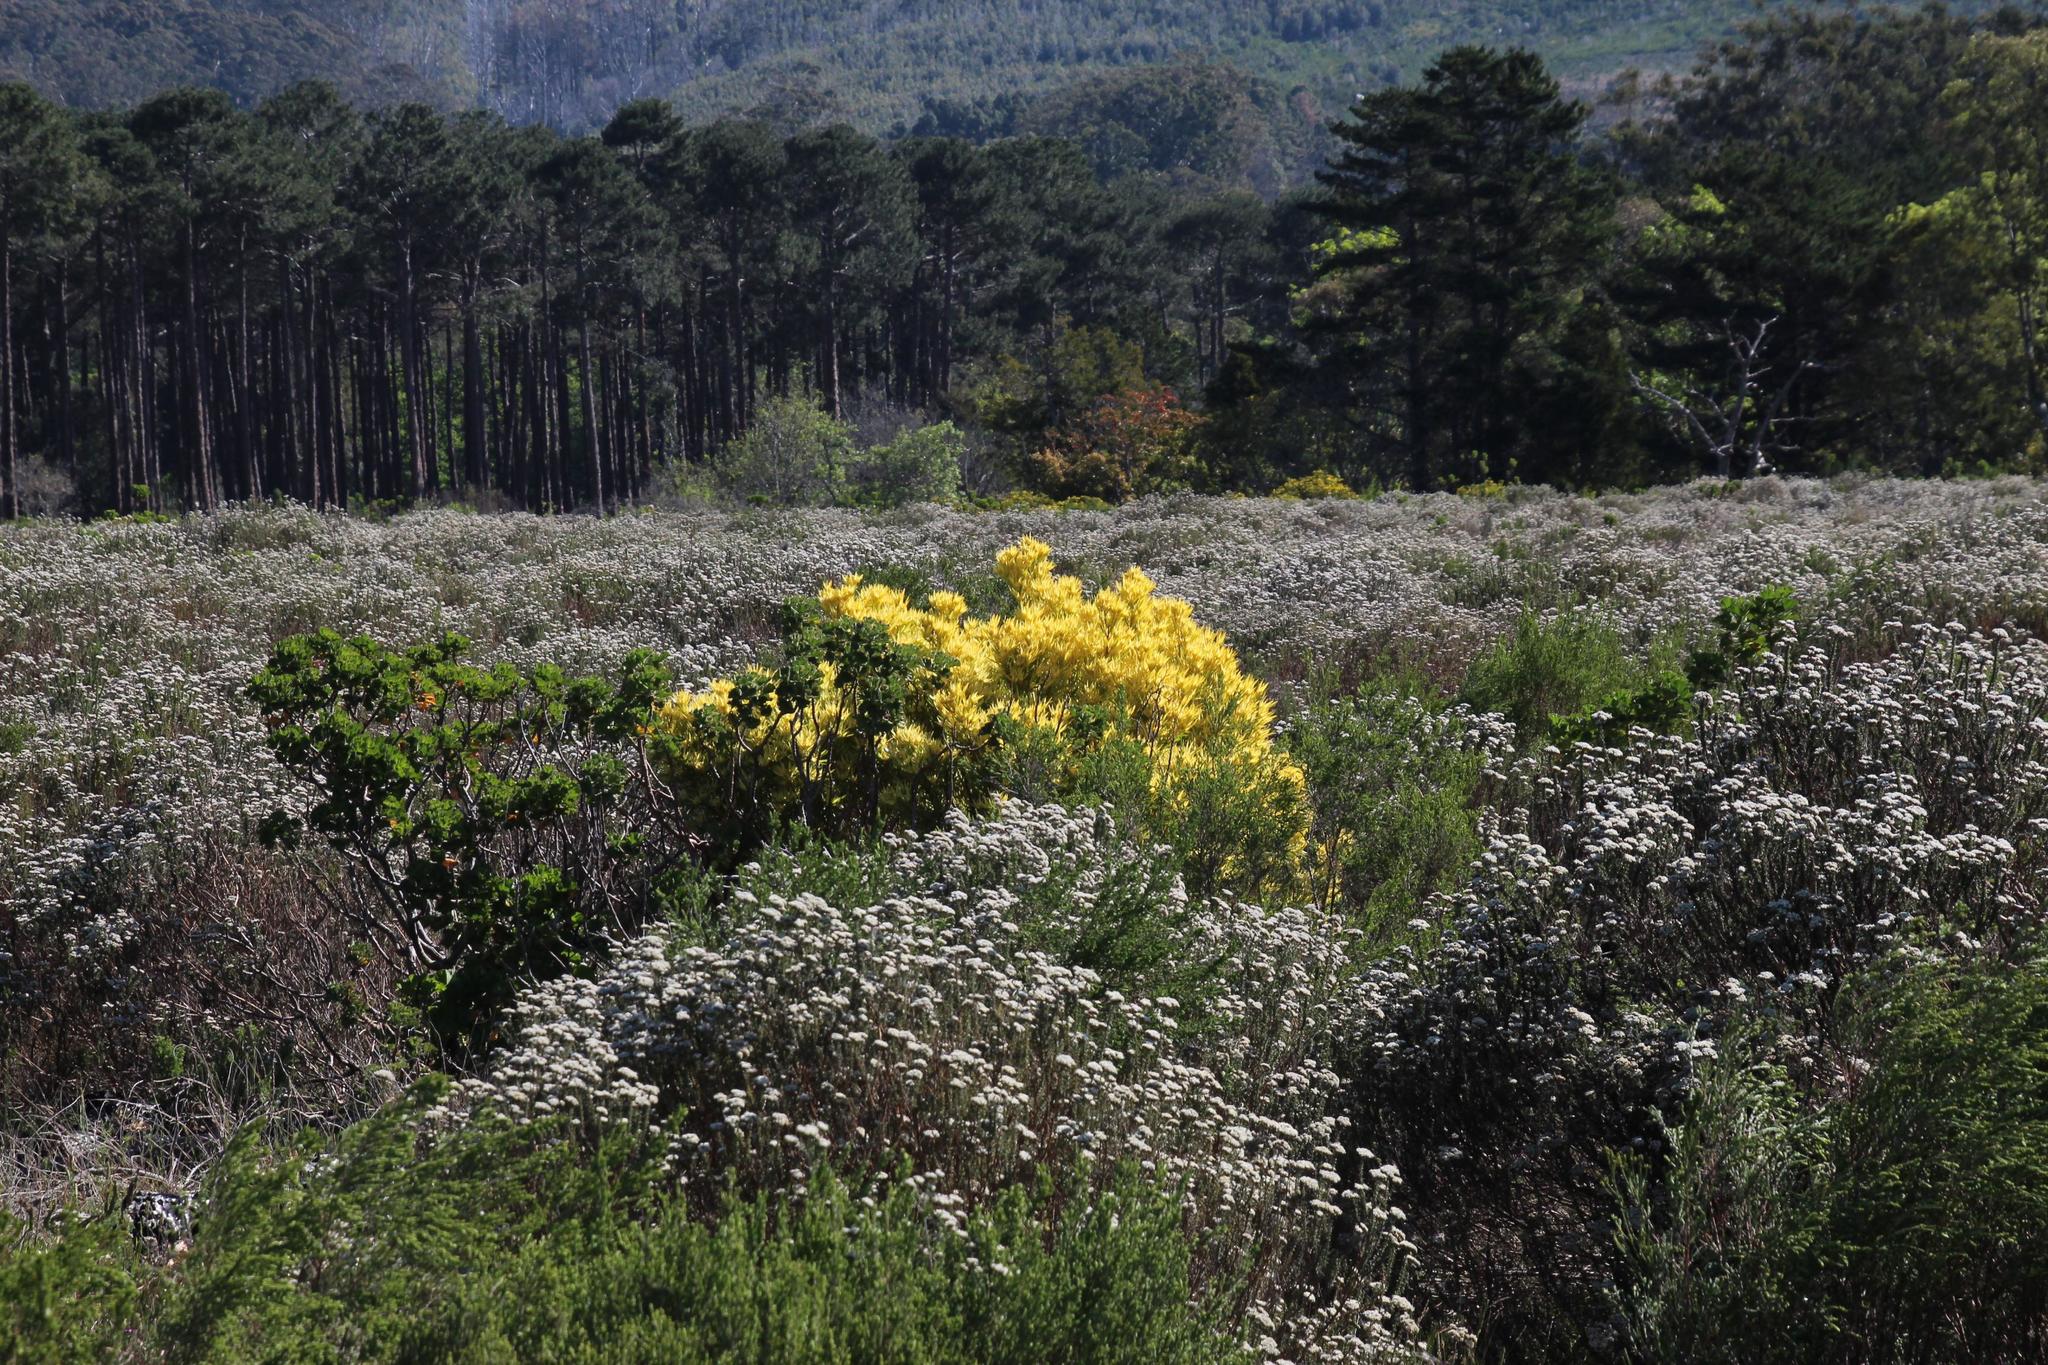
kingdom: Plantae
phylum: Tracheophyta
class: Magnoliopsida
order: Proteales
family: Proteaceae
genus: Leucadendron
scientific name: Leucadendron laureolum
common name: Golden sunshinebush
